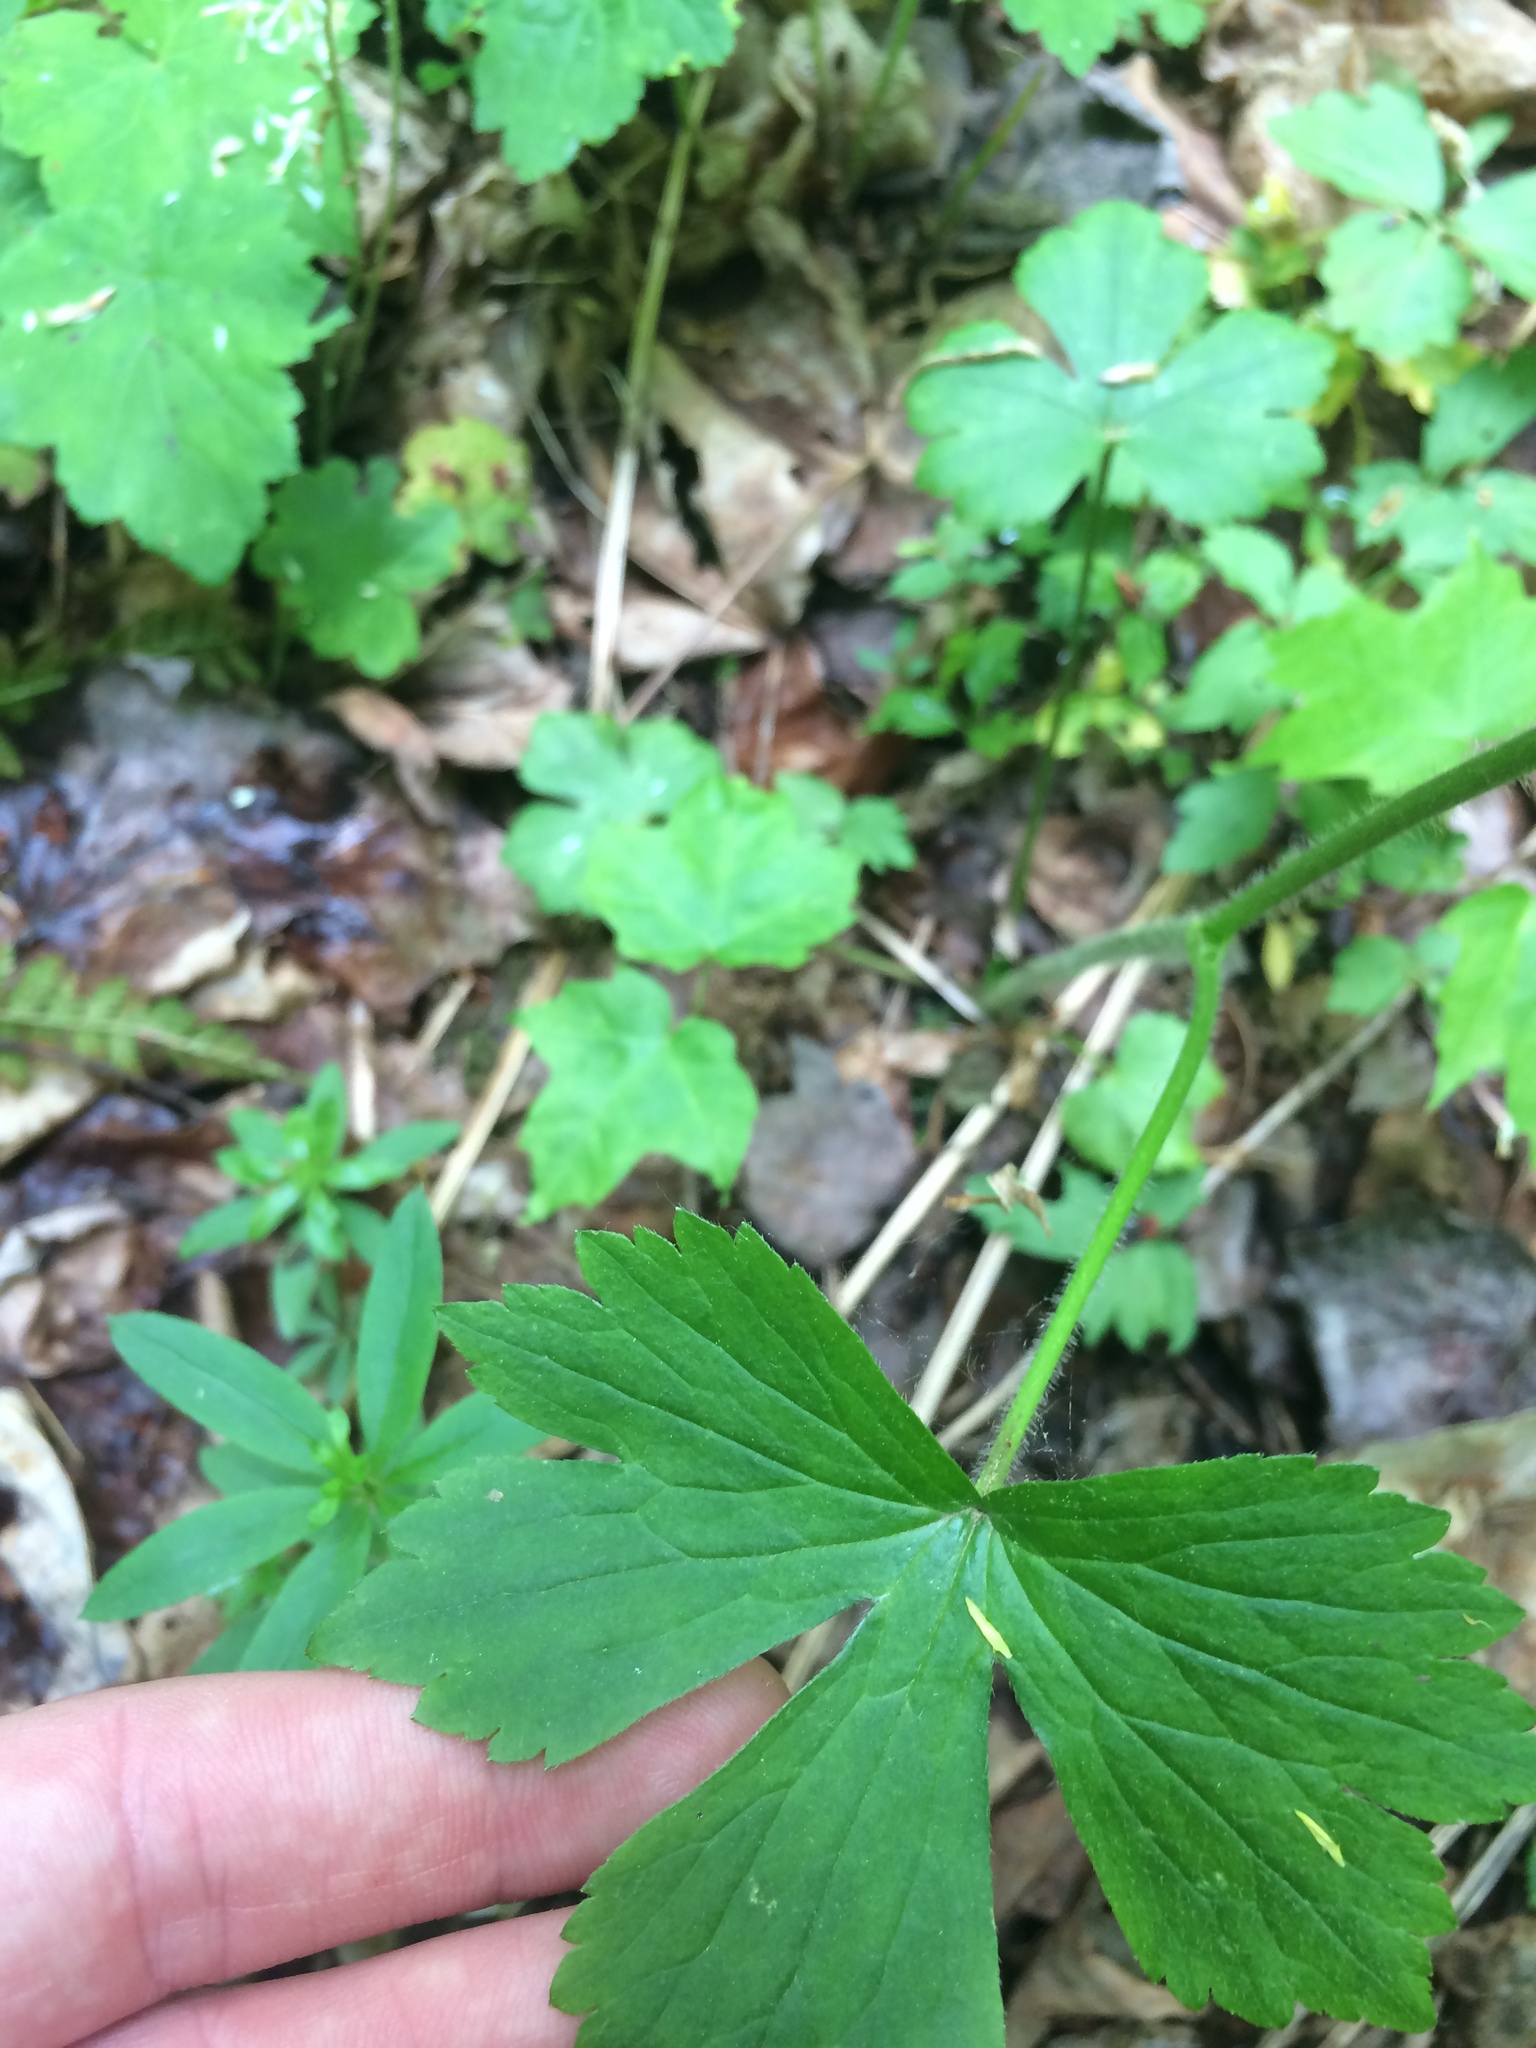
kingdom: Plantae
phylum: Tracheophyta
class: Magnoliopsida
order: Ranunculales
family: Ranunculaceae
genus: Ranunculus
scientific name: Ranunculus recurvatus
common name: Blisterwort
